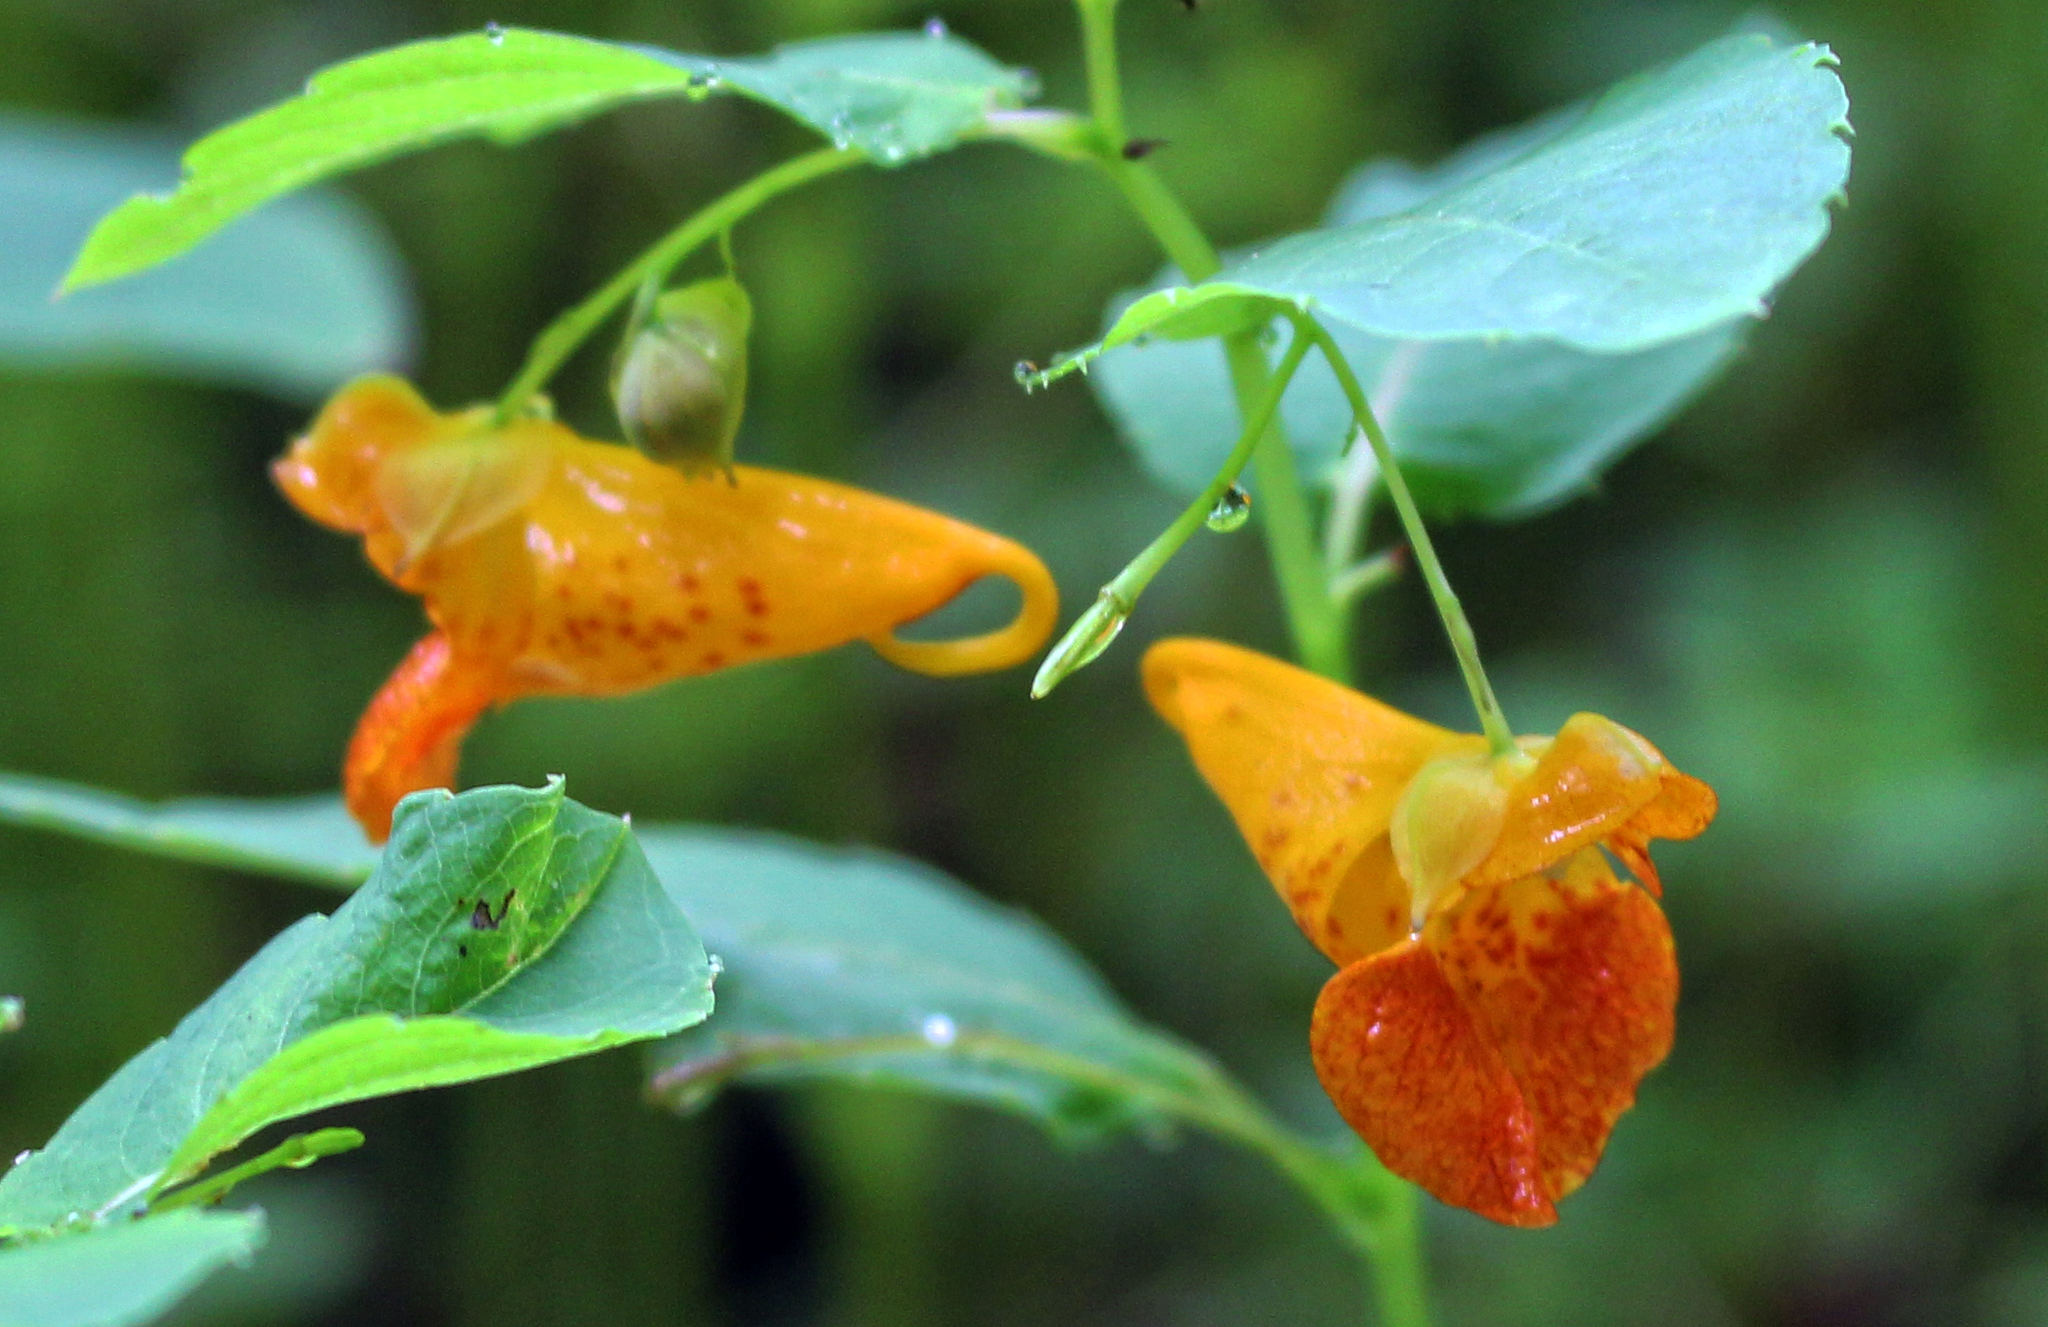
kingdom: Plantae
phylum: Tracheophyta
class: Magnoliopsida
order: Ericales
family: Balsaminaceae
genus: Impatiens
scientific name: Impatiens capensis
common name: Orange balsam
